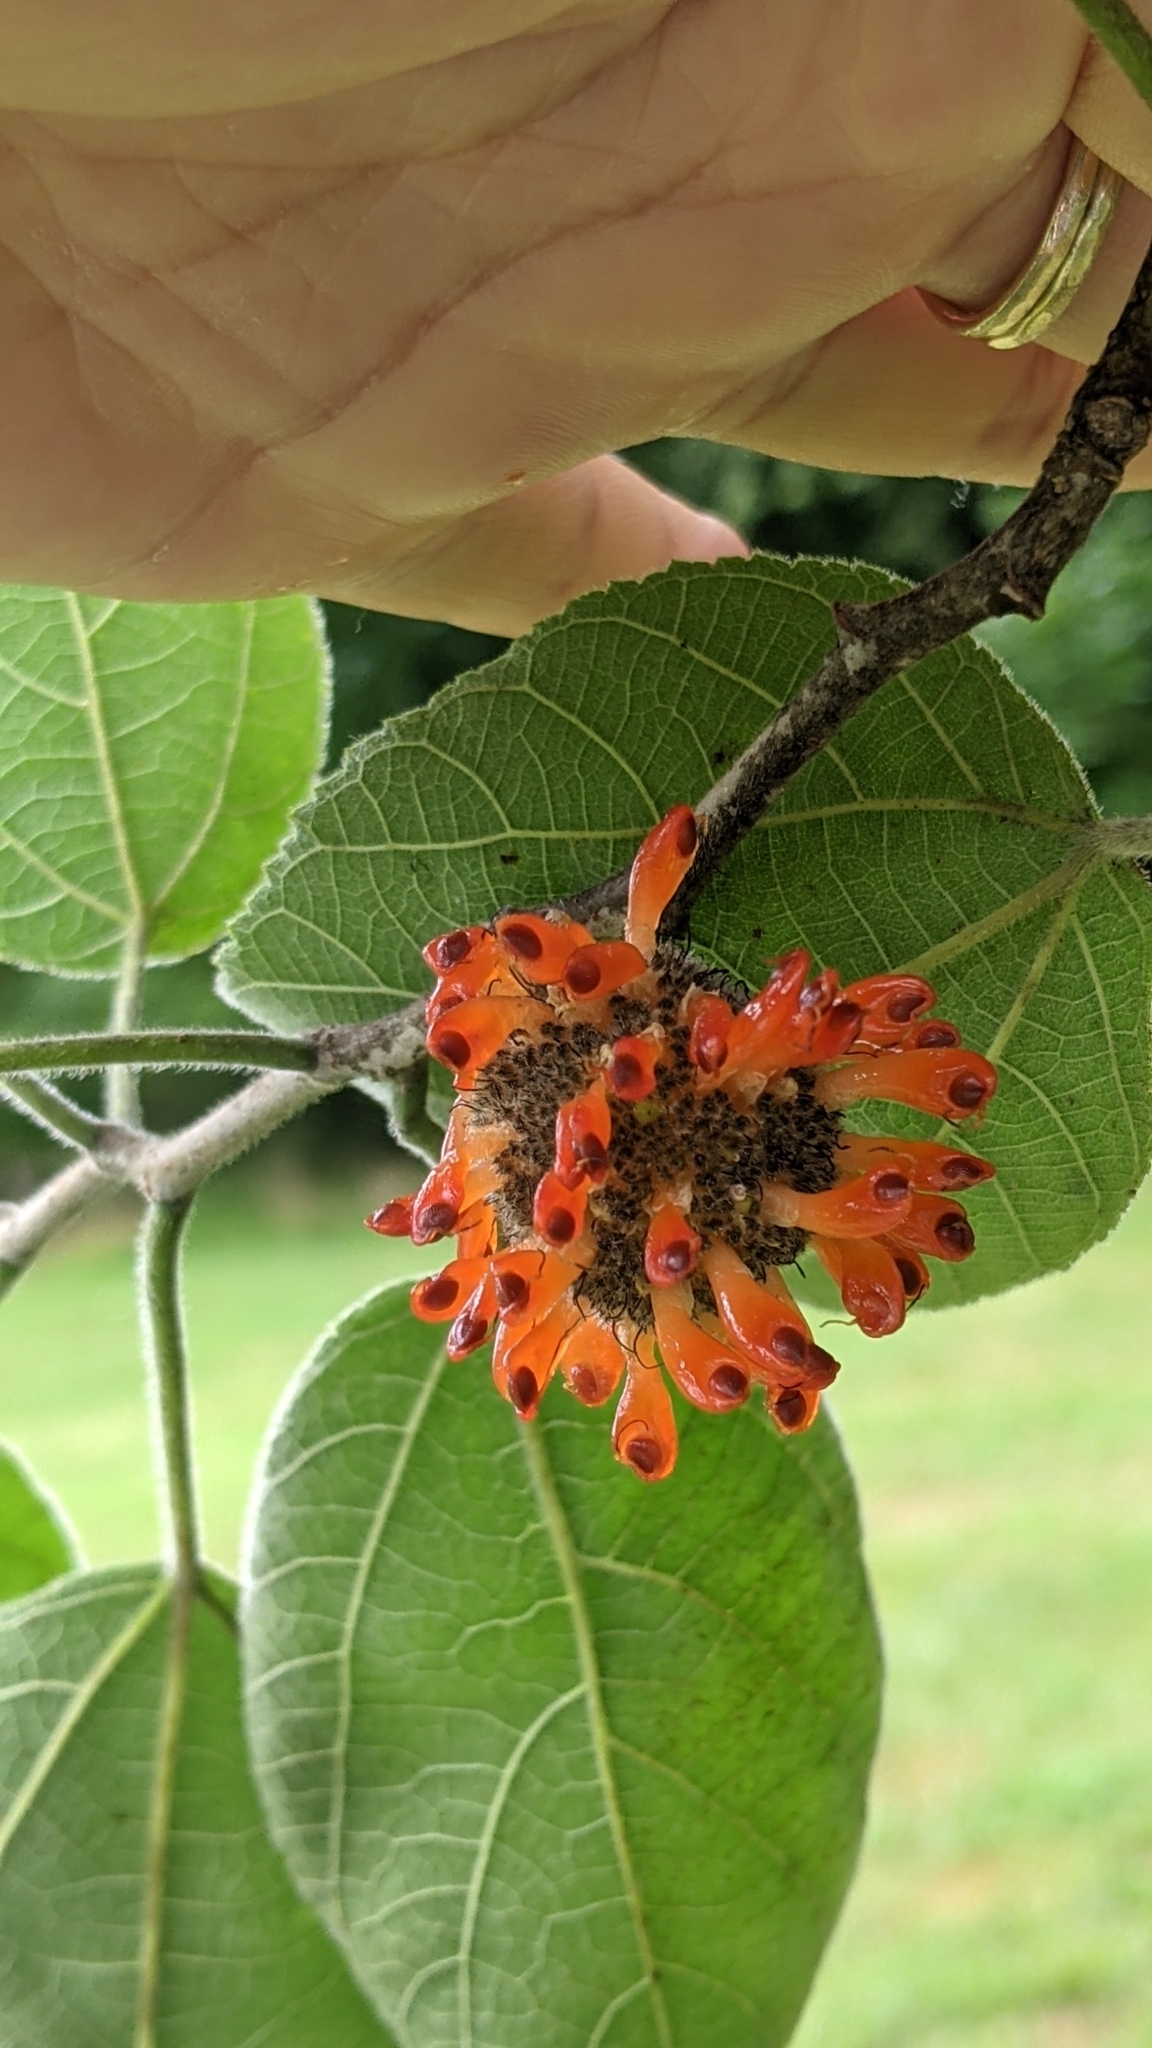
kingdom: Plantae
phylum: Tracheophyta
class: Magnoliopsida
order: Rosales
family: Moraceae
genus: Broussonetia
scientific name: Broussonetia papyrifera
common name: Paper mulberry
